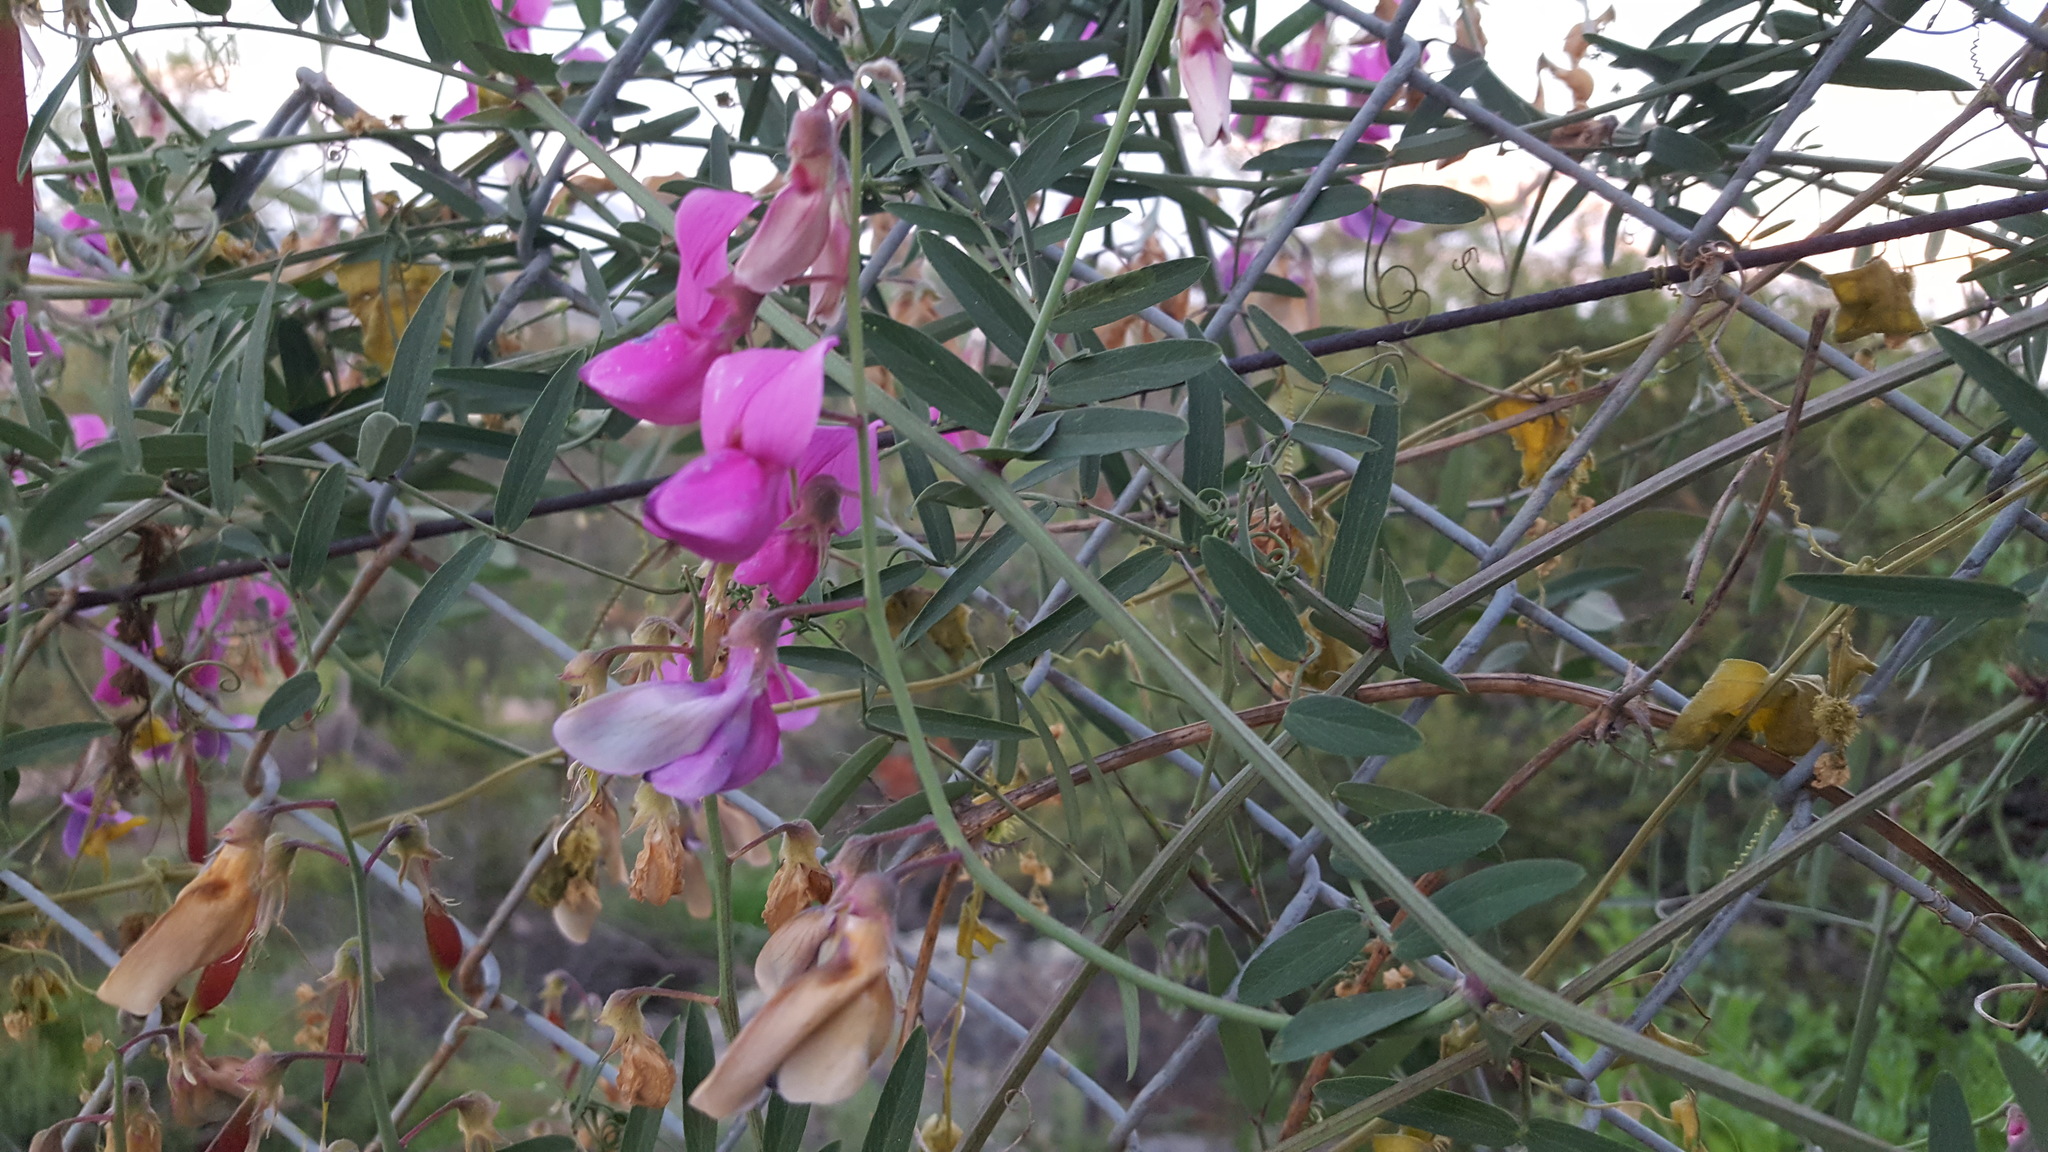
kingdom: Plantae
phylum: Tracheophyta
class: Magnoliopsida
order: Fabales
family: Fabaceae
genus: Lathyrus
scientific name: Lathyrus vestitus
